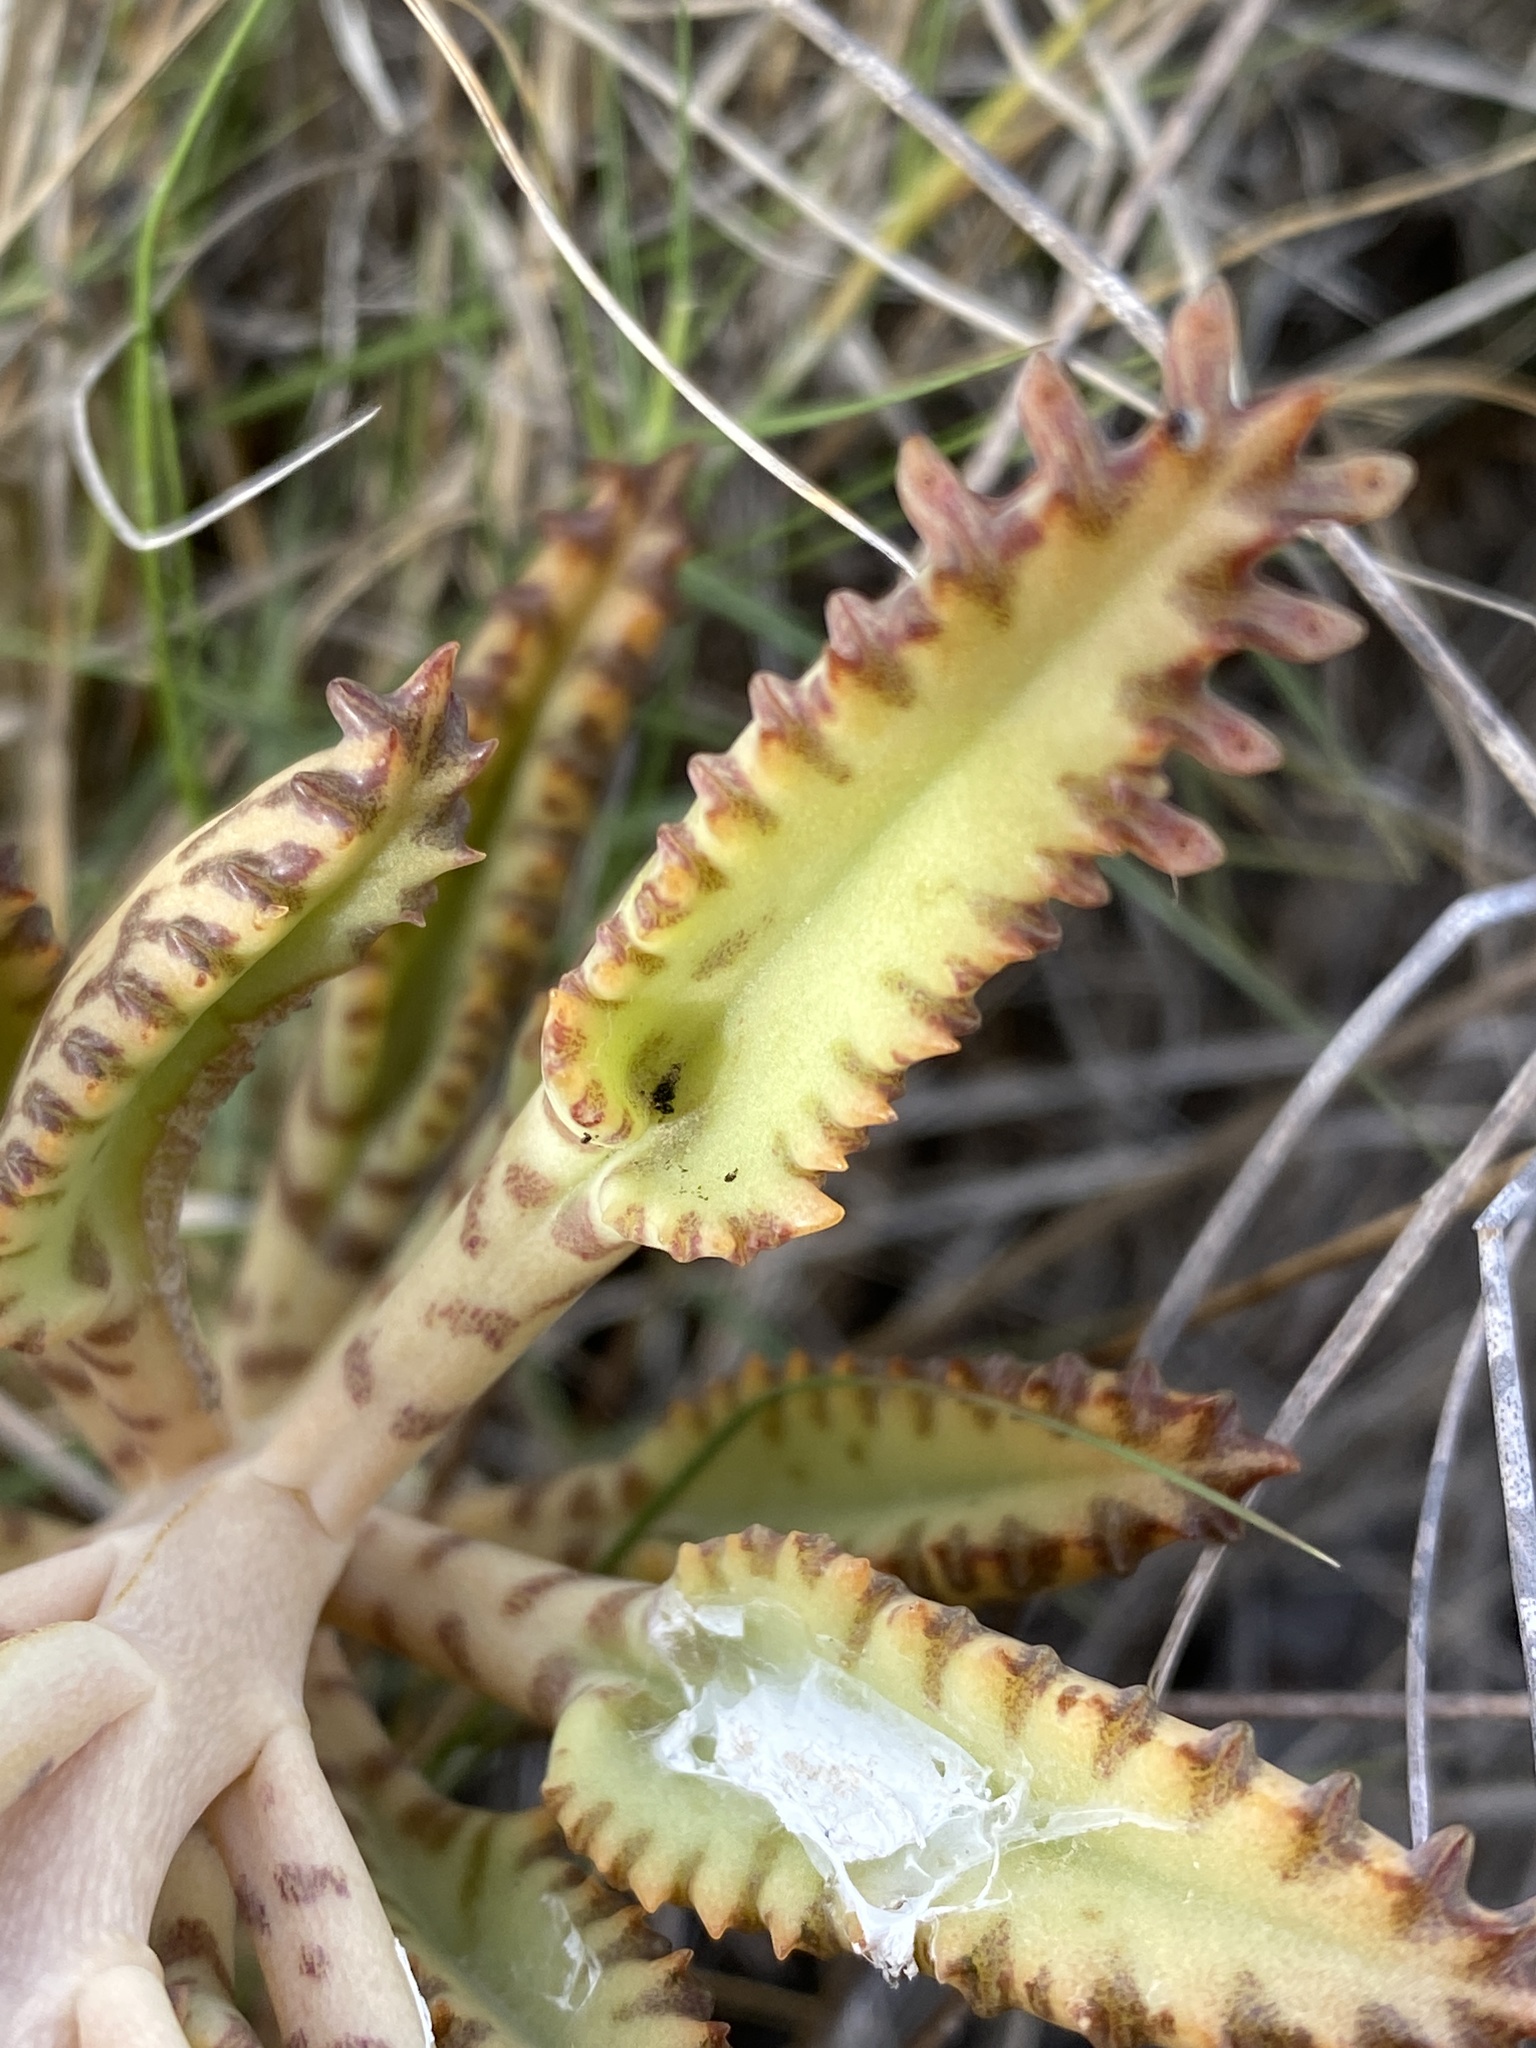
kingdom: Plantae
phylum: Tracheophyta
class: Magnoliopsida
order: Saxifragales
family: Crassulaceae
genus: Kalanchoe
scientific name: Kalanchoe houghtonii
